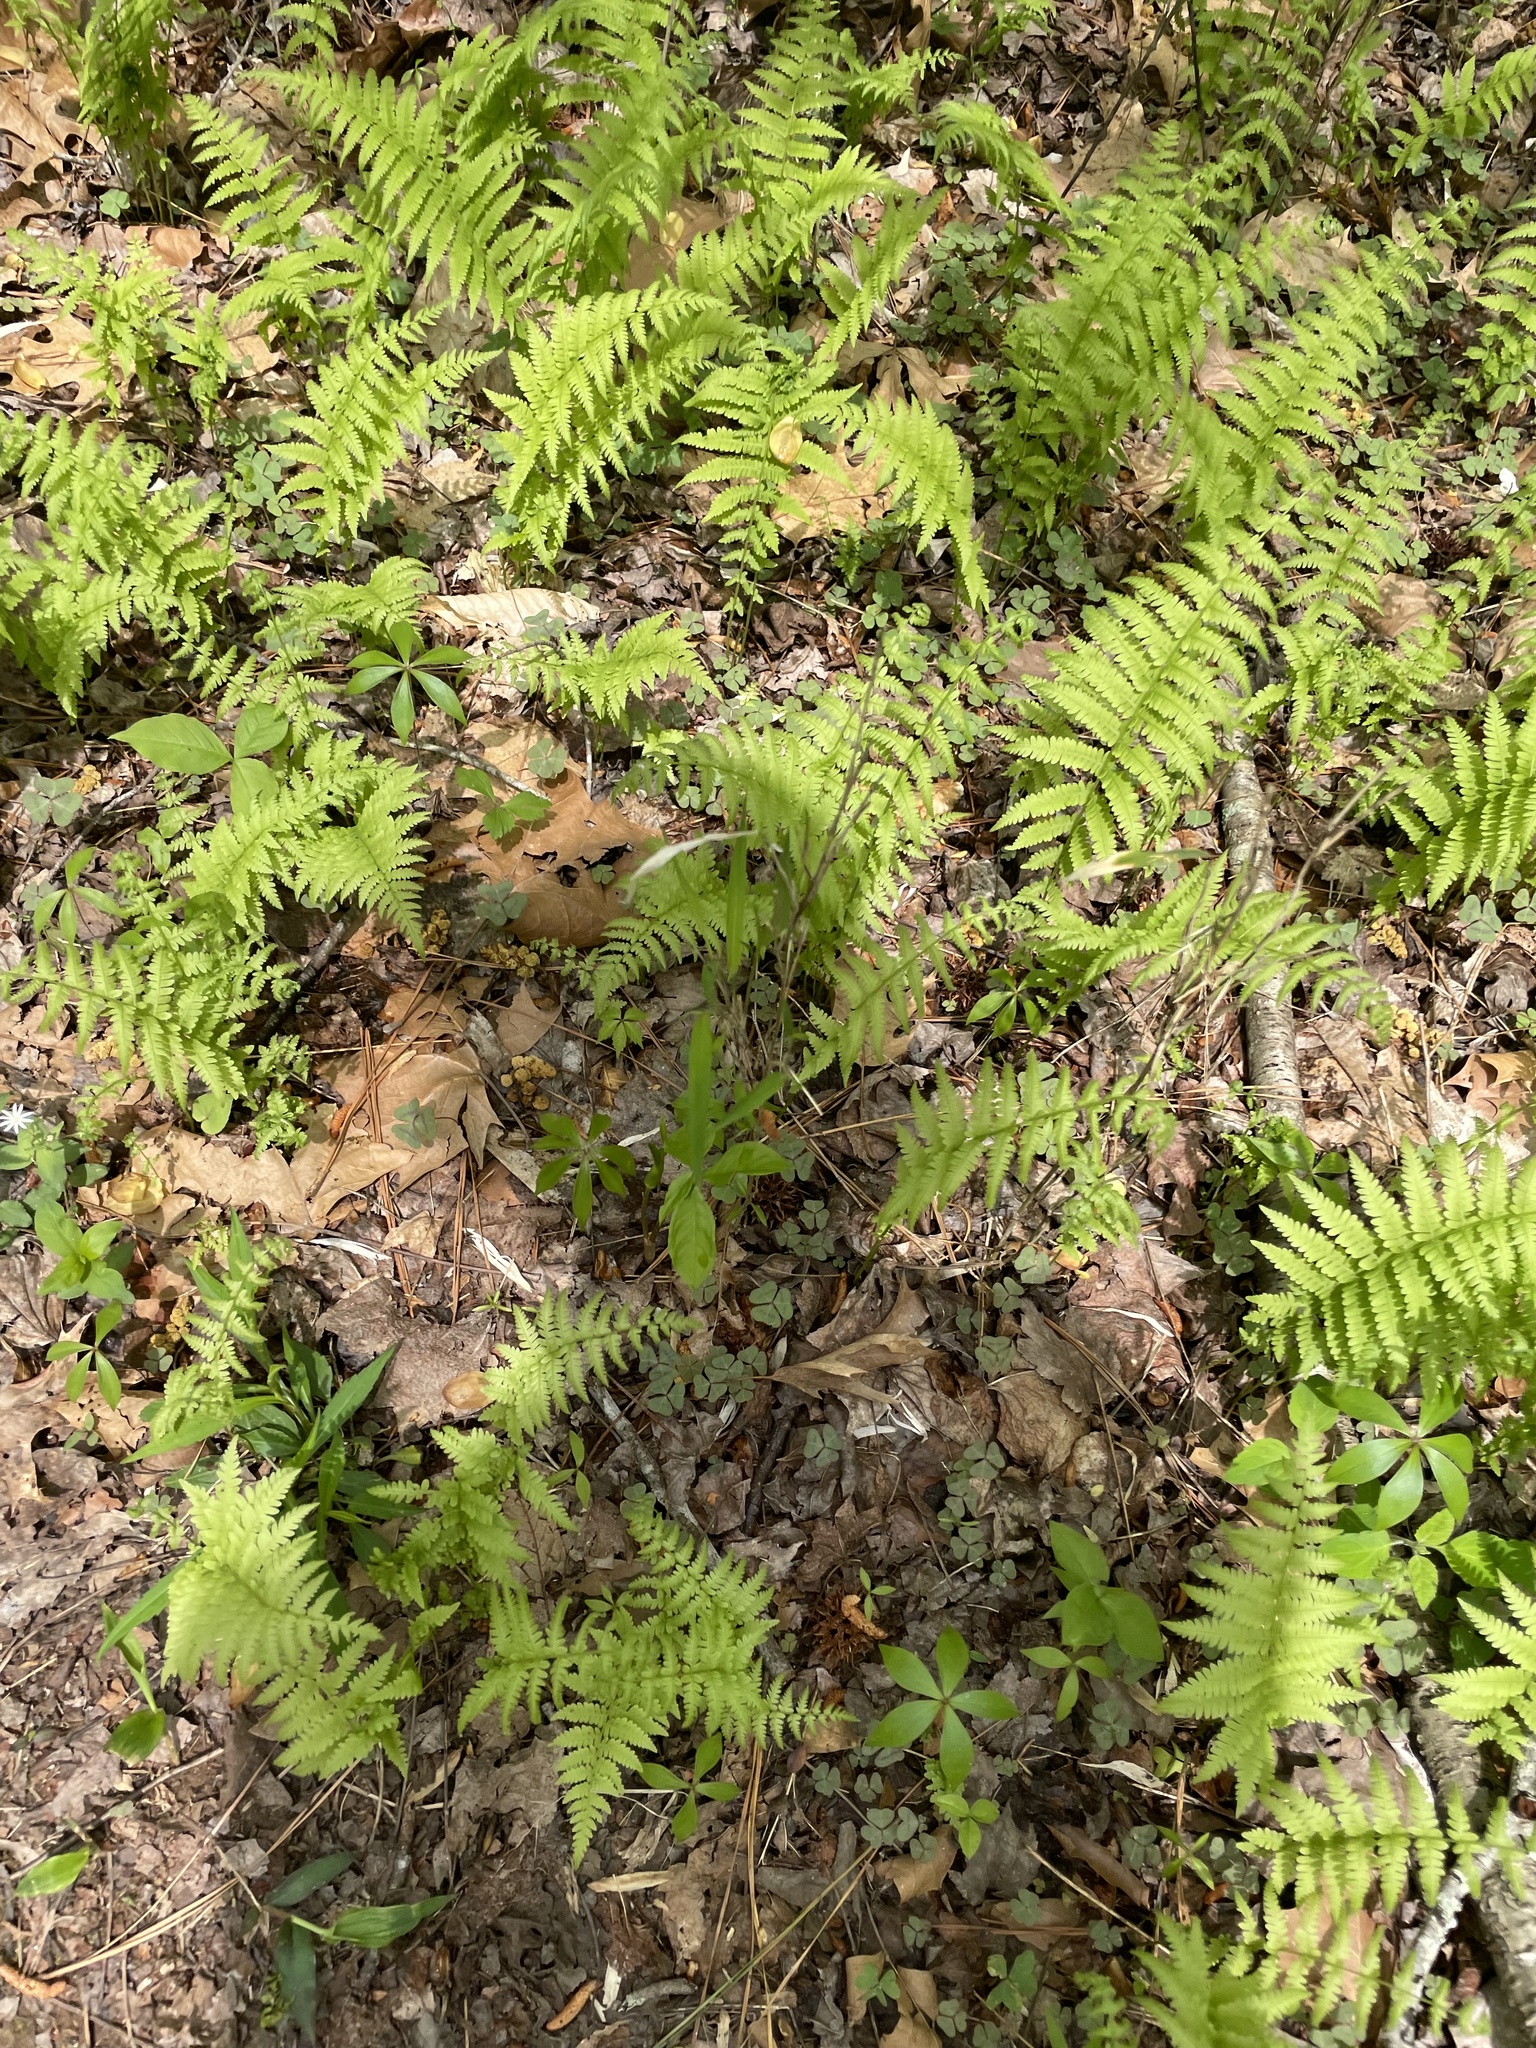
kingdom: Plantae
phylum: Tracheophyta
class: Polypodiopsida
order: Polypodiales
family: Thelypteridaceae
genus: Amauropelta
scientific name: Amauropelta noveboracensis
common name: New york fern
